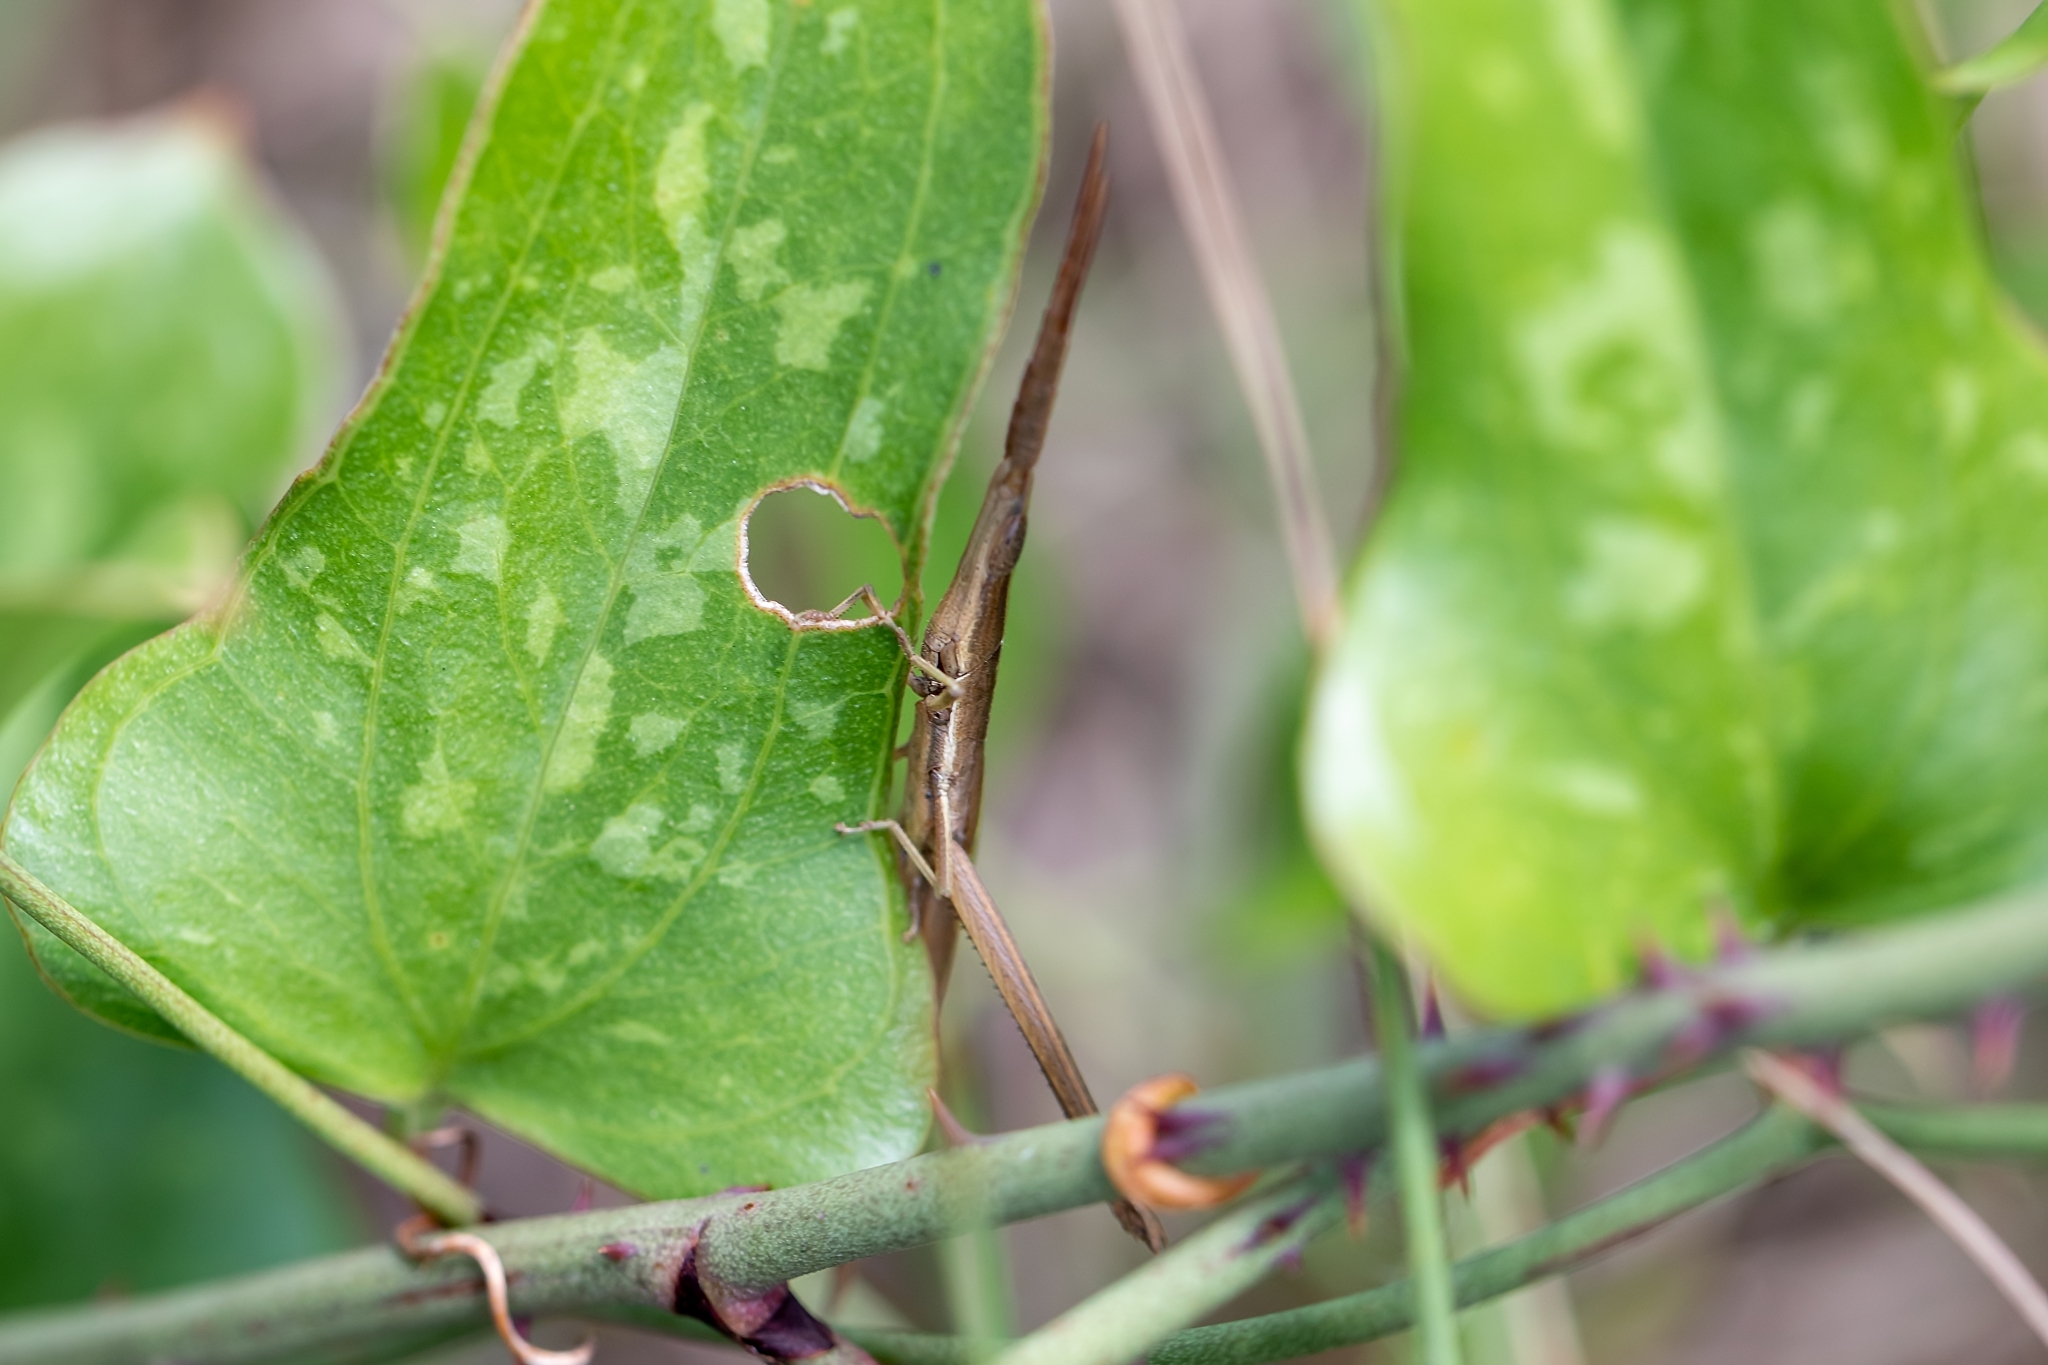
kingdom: Animalia
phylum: Arthropoda
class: Insecta
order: Orthoptera
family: Acrididae
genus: Achurum
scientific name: Achurum carinatum
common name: Long-headed toothpick grasshopper
